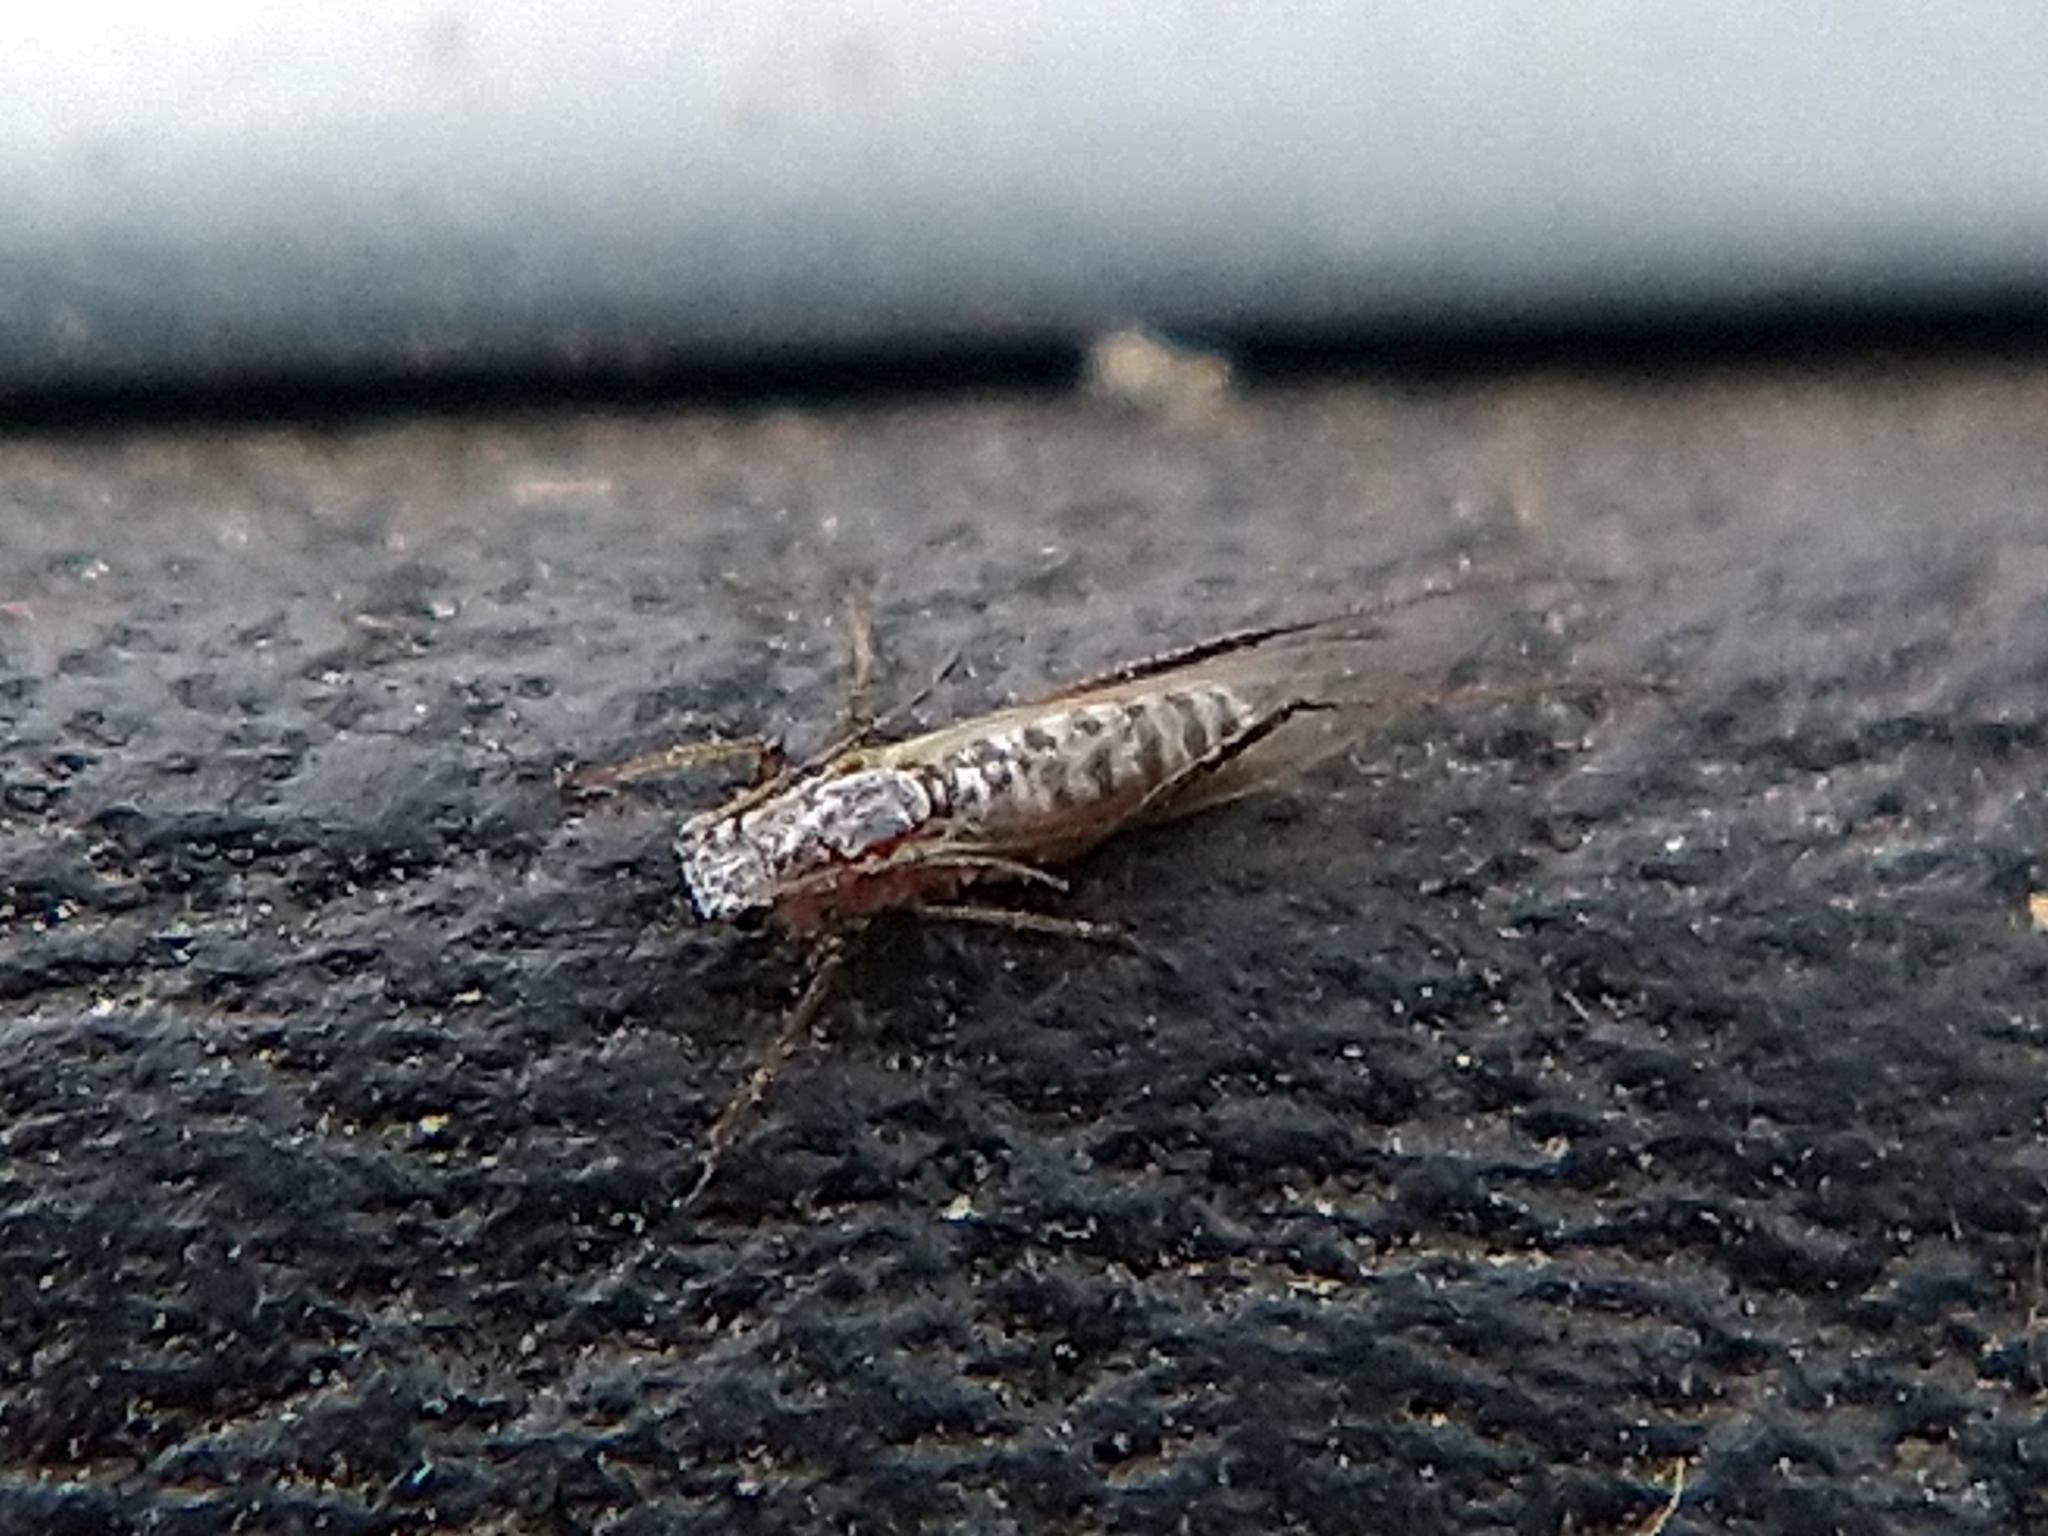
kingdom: Animalia
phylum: Arthropoda
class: Insecta
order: Hemiptera
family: Aphididae
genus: Eulachnus
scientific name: Eulachnus
